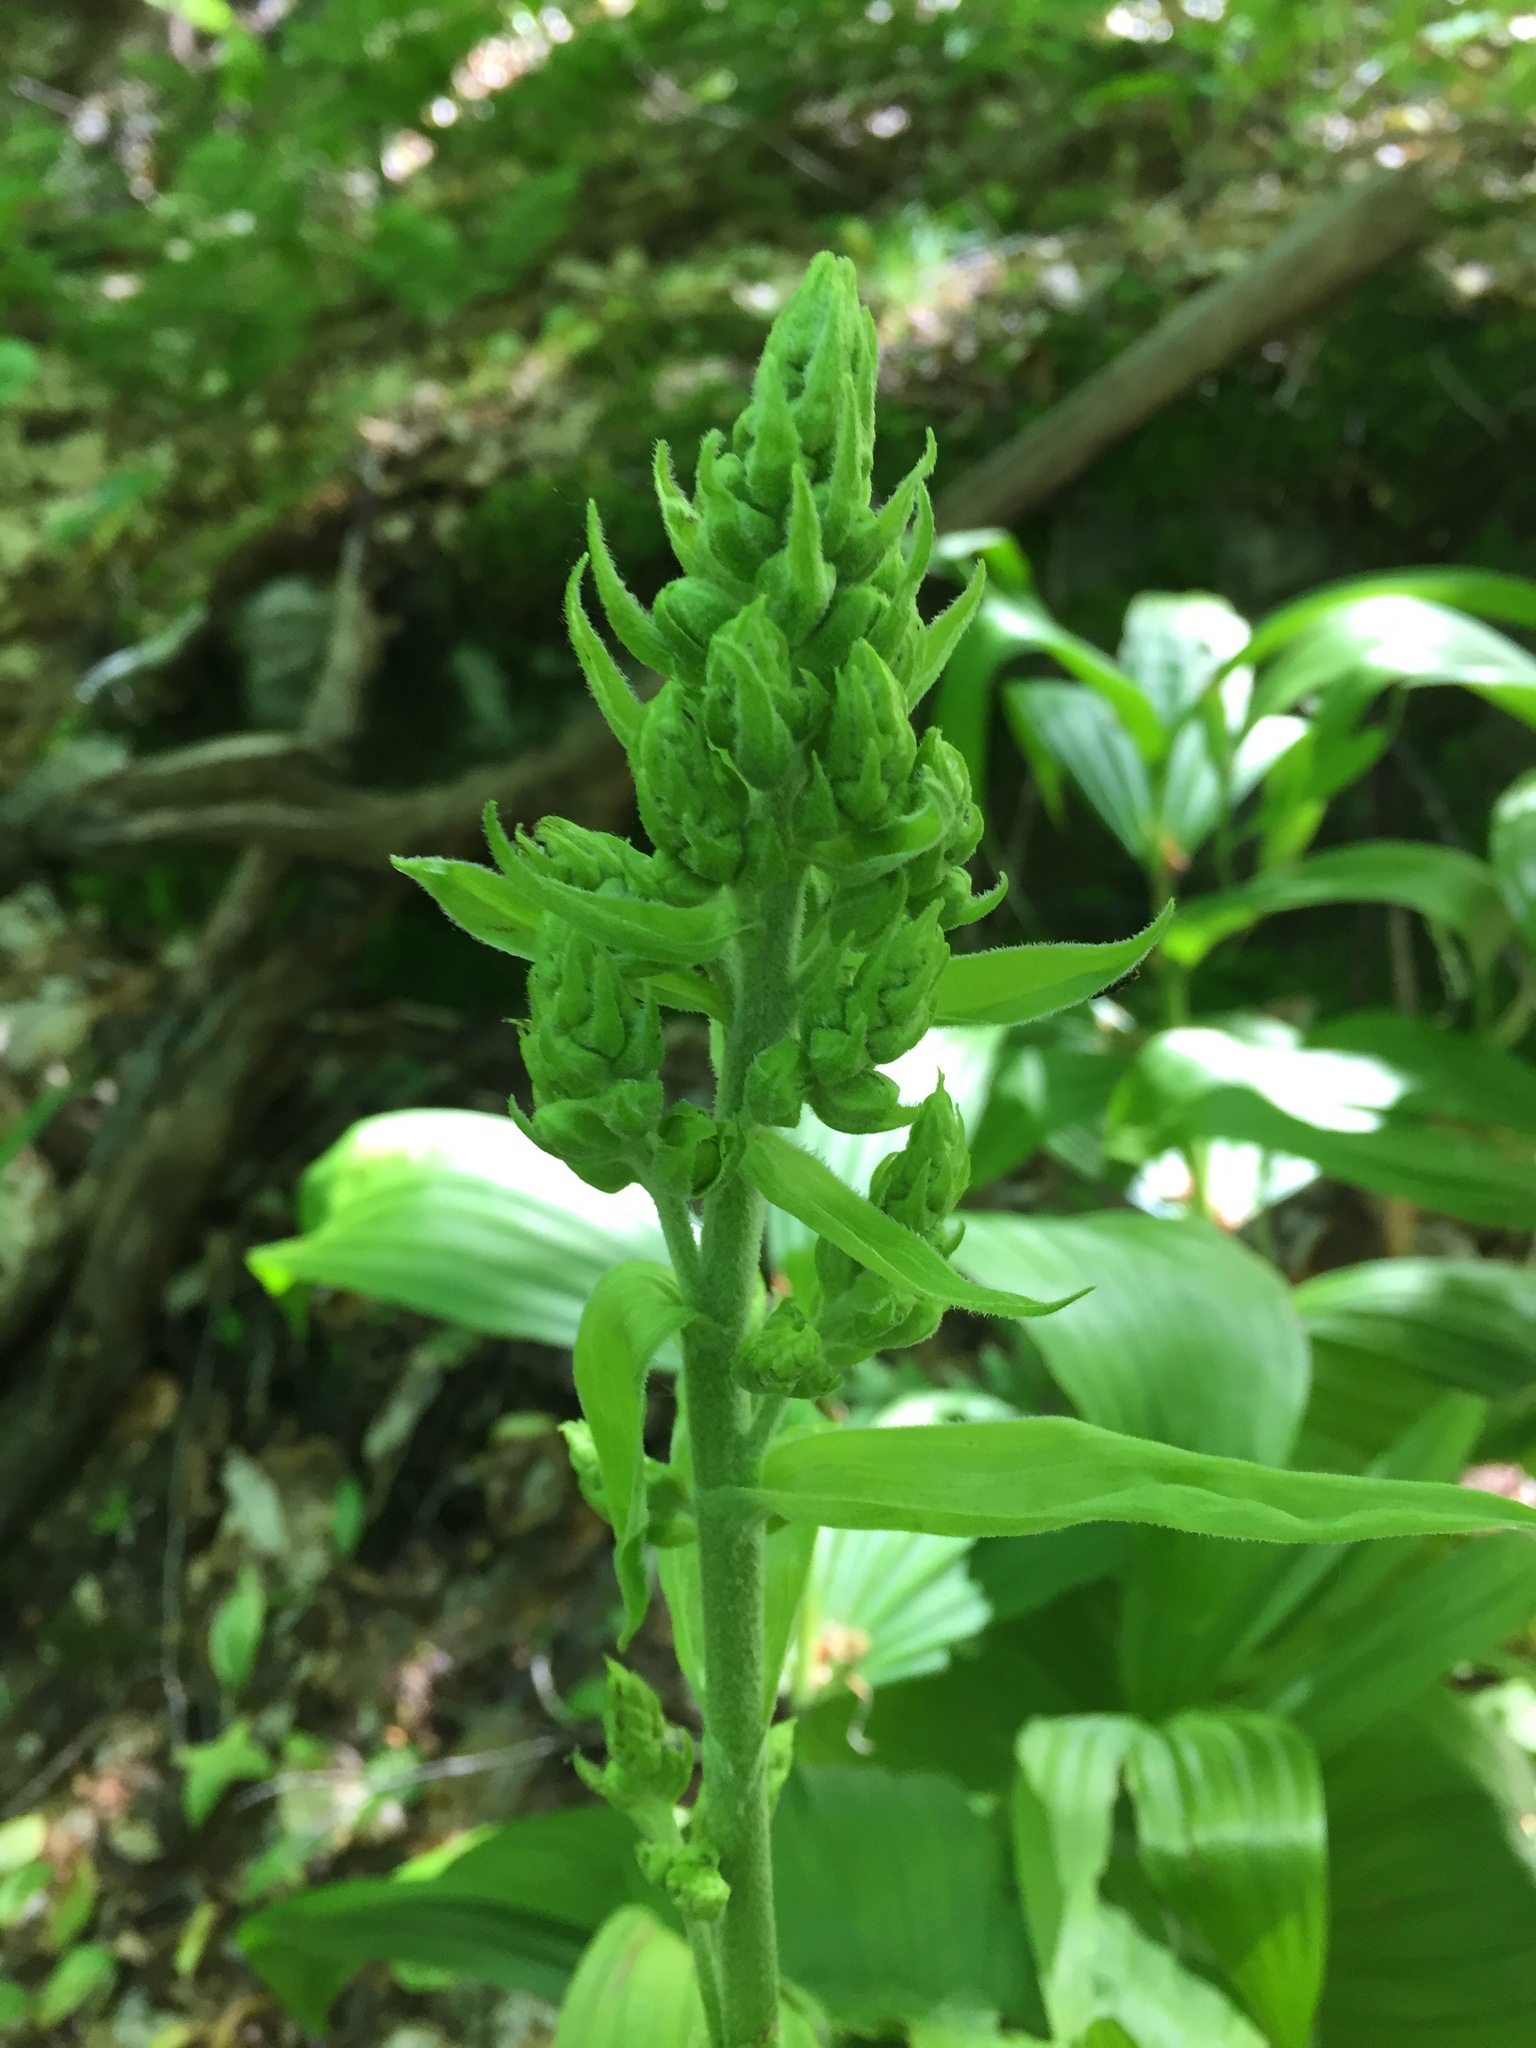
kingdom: Plantae
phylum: Tracheophyta
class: Liliopsida
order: Liliales
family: Melanthiaceae
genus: Veratrum
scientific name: Veratrum viride
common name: American false hellebore
